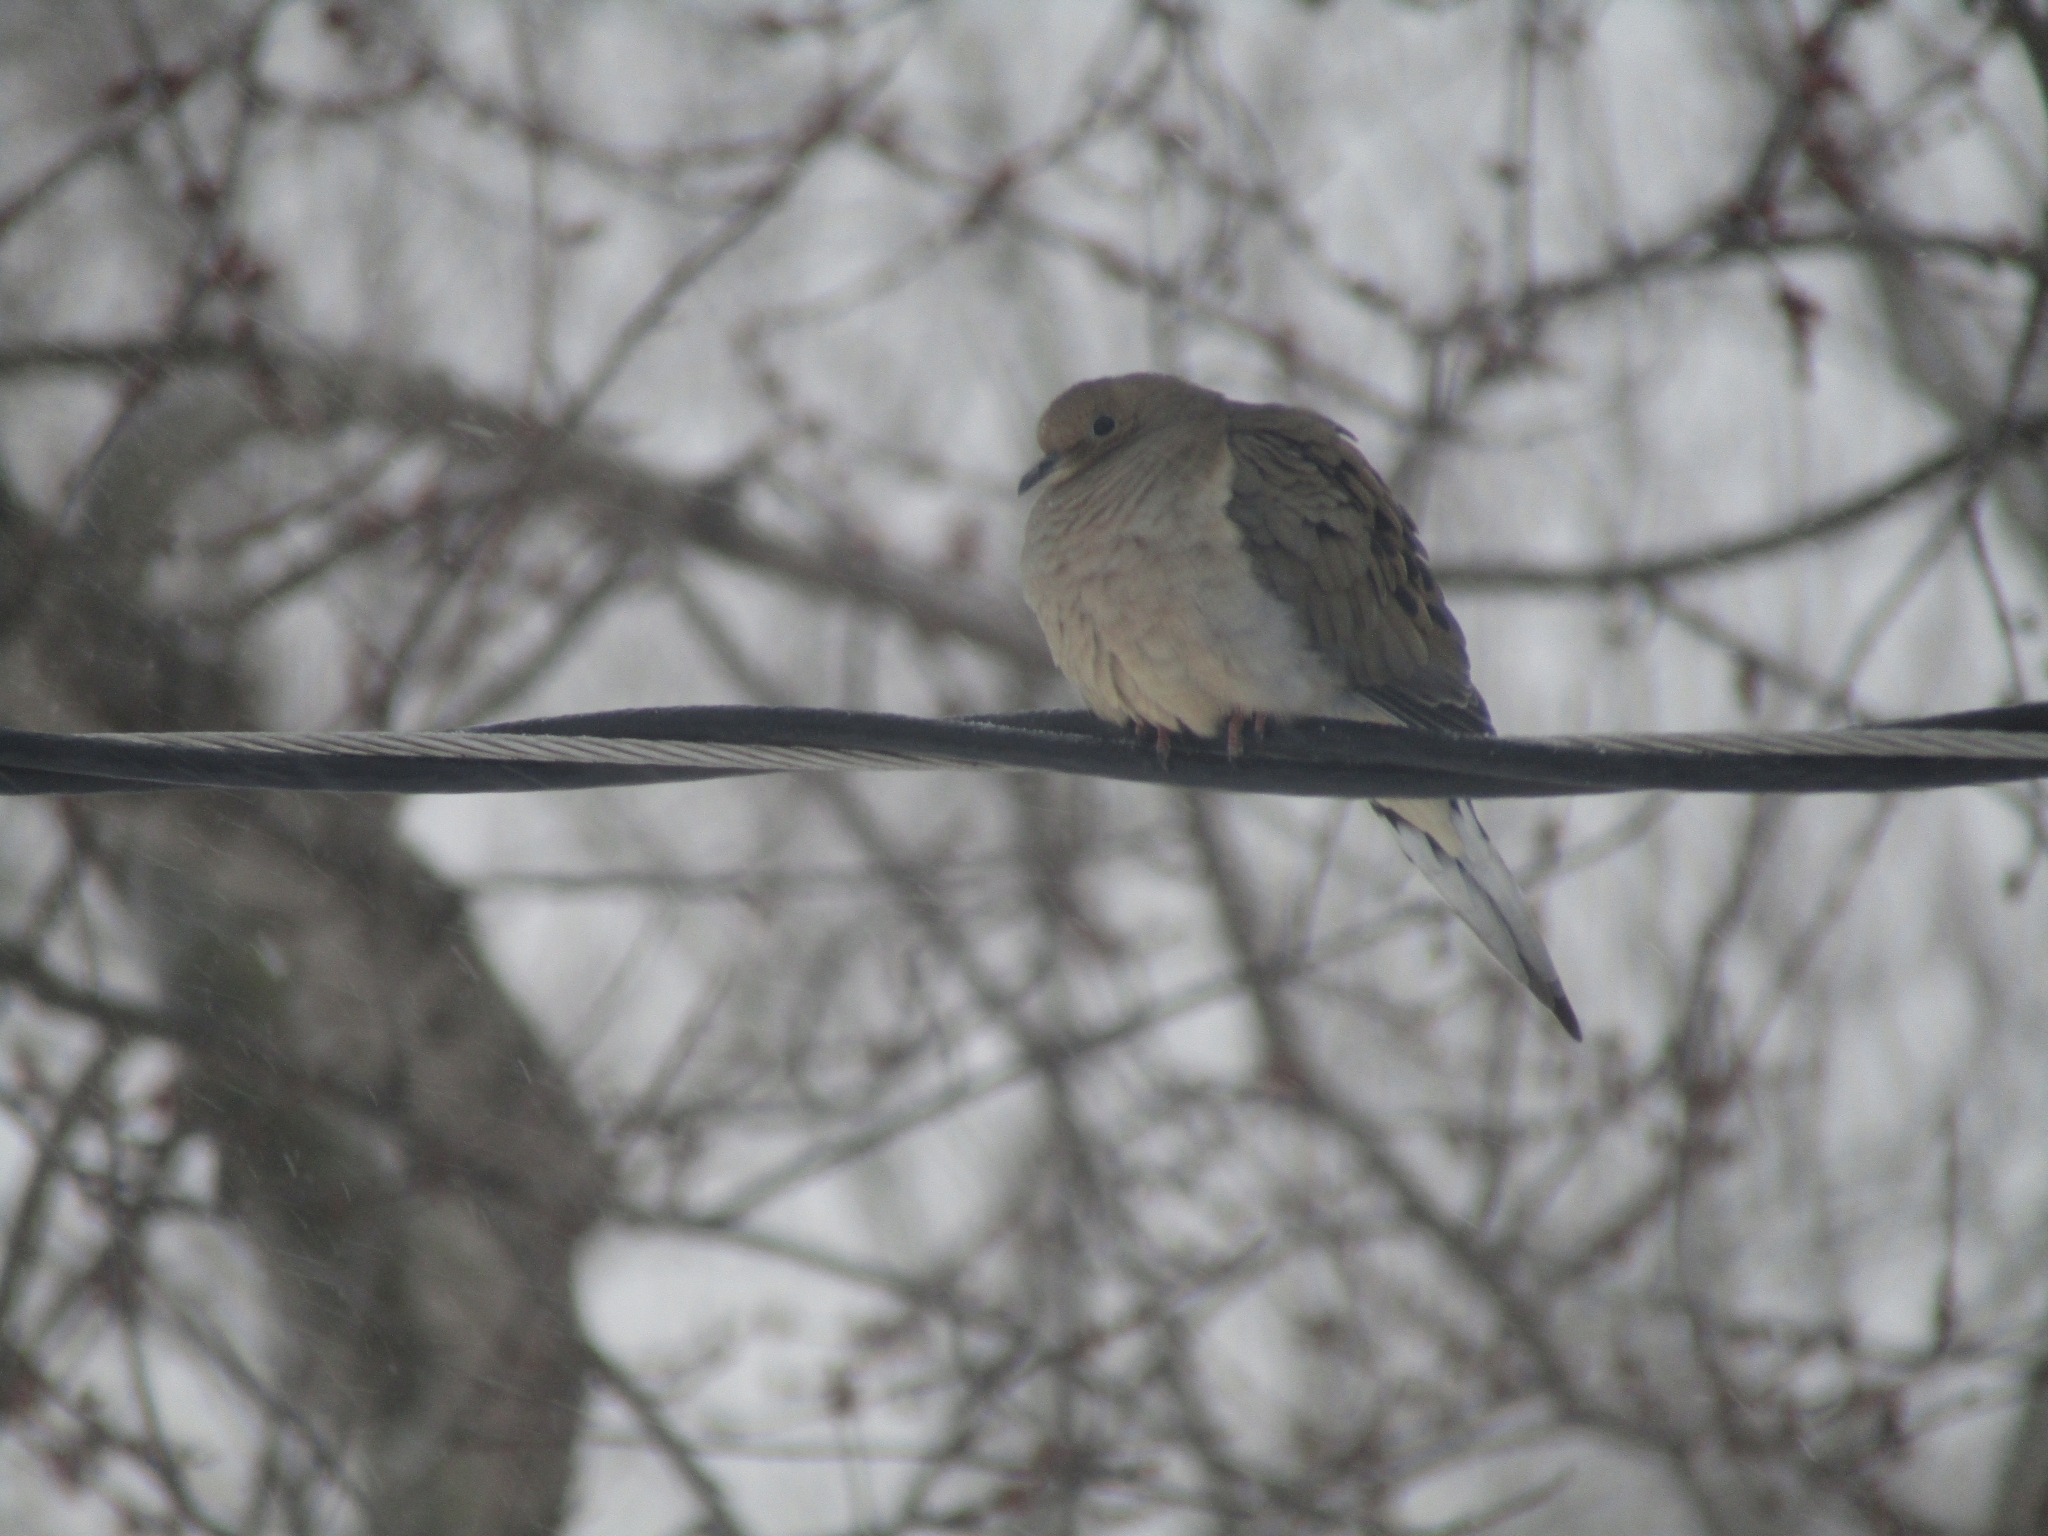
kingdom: Animalia
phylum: Chordata
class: Aves
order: Columbiformes
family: Columbidae
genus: Zenaida
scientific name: Zenaida macroura
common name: Mourning dove
